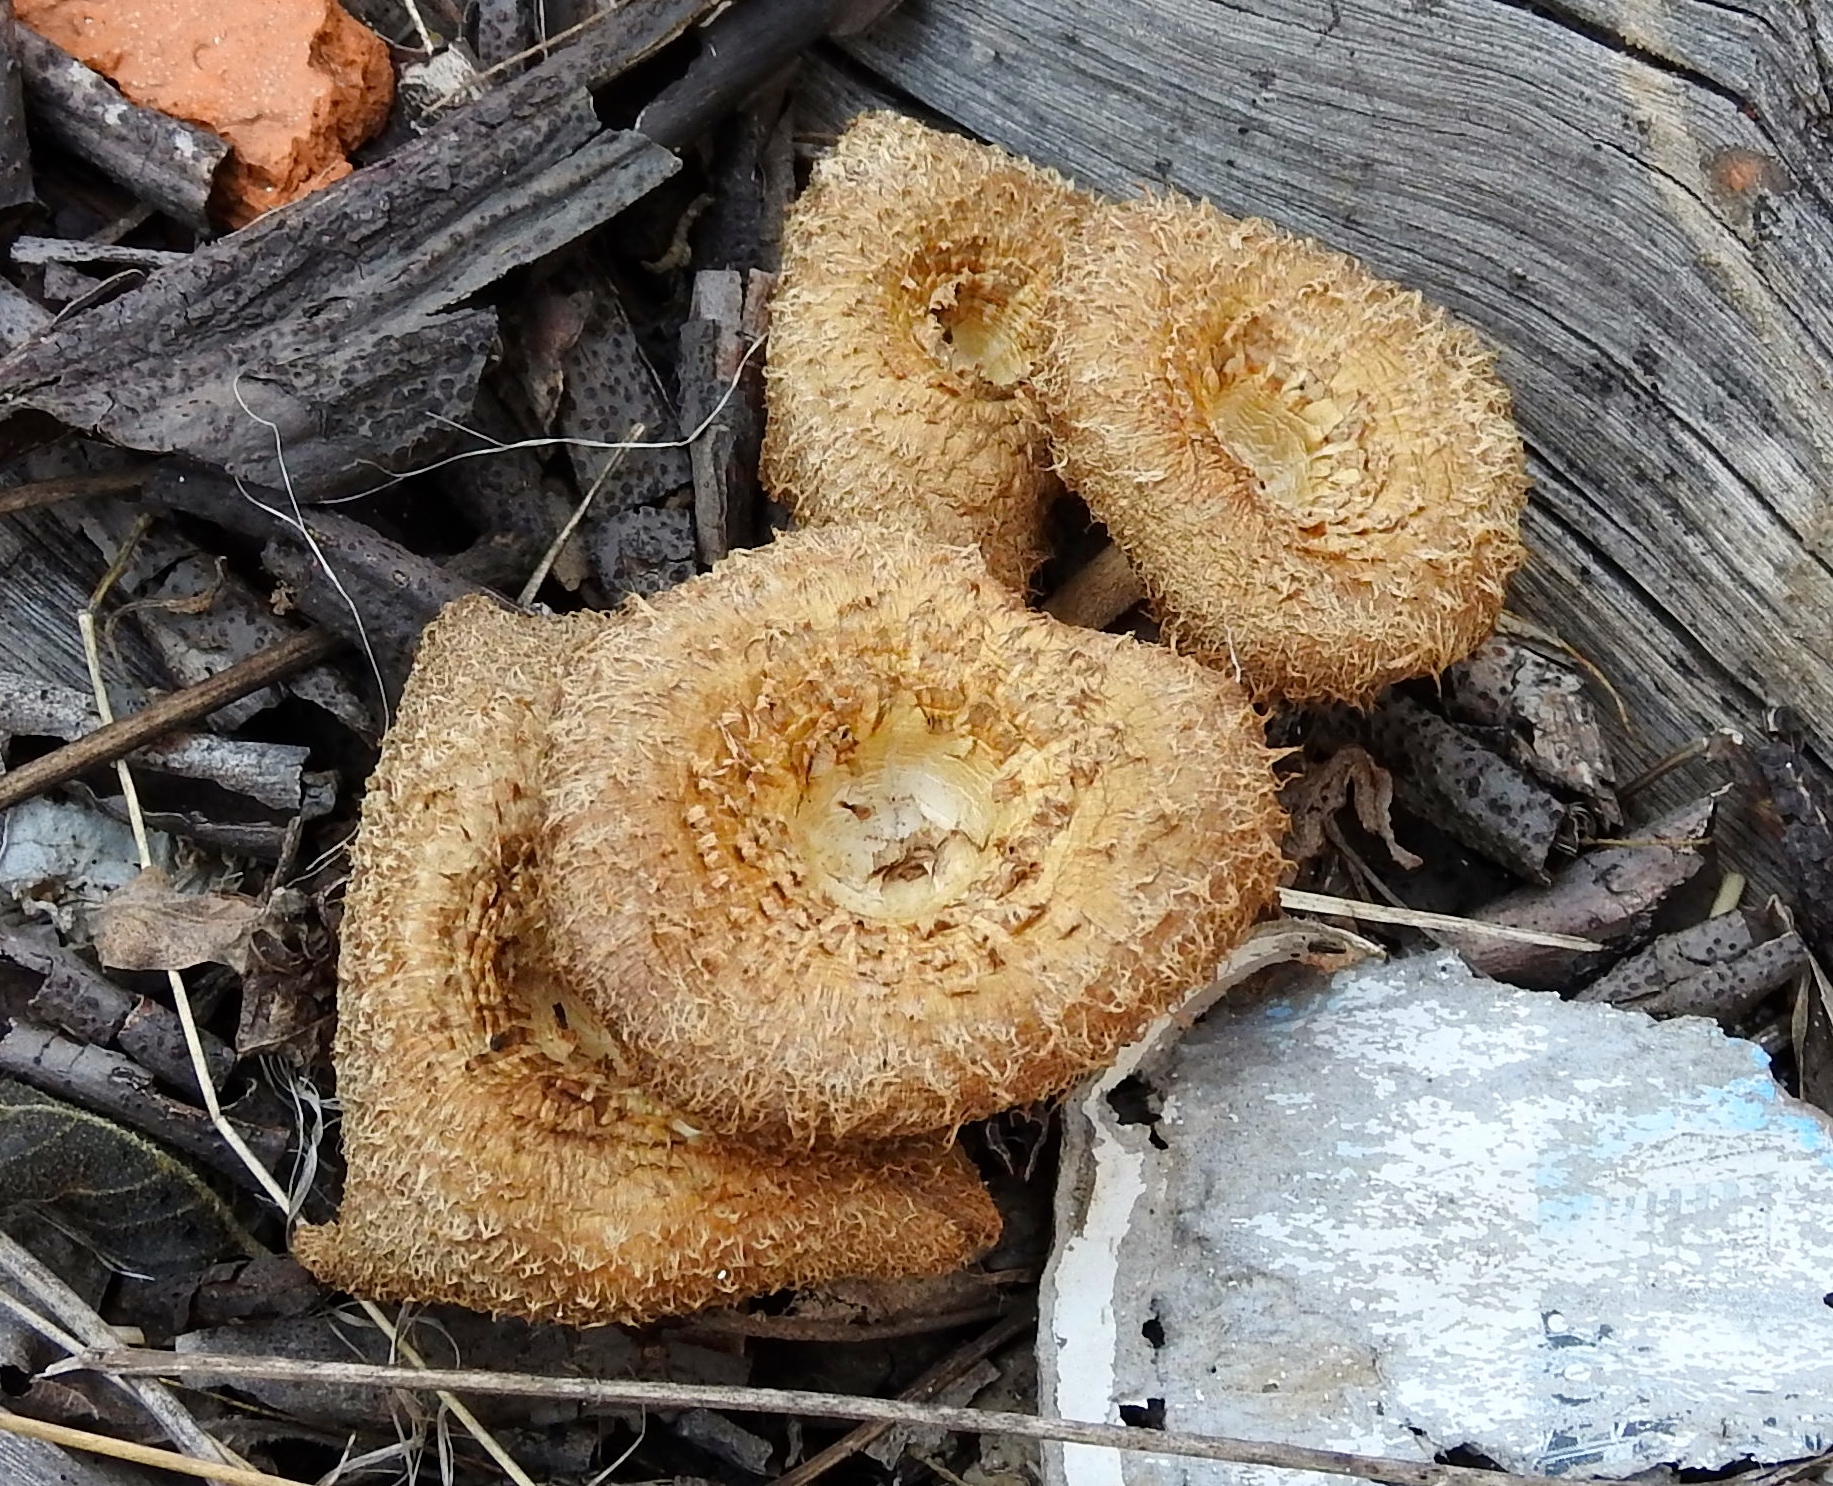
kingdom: Fungi
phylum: Basidiomycota
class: Agaricomycetes
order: Polyporales
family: Polyporaceae
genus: Lentinus
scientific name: Lentinus crinitus
